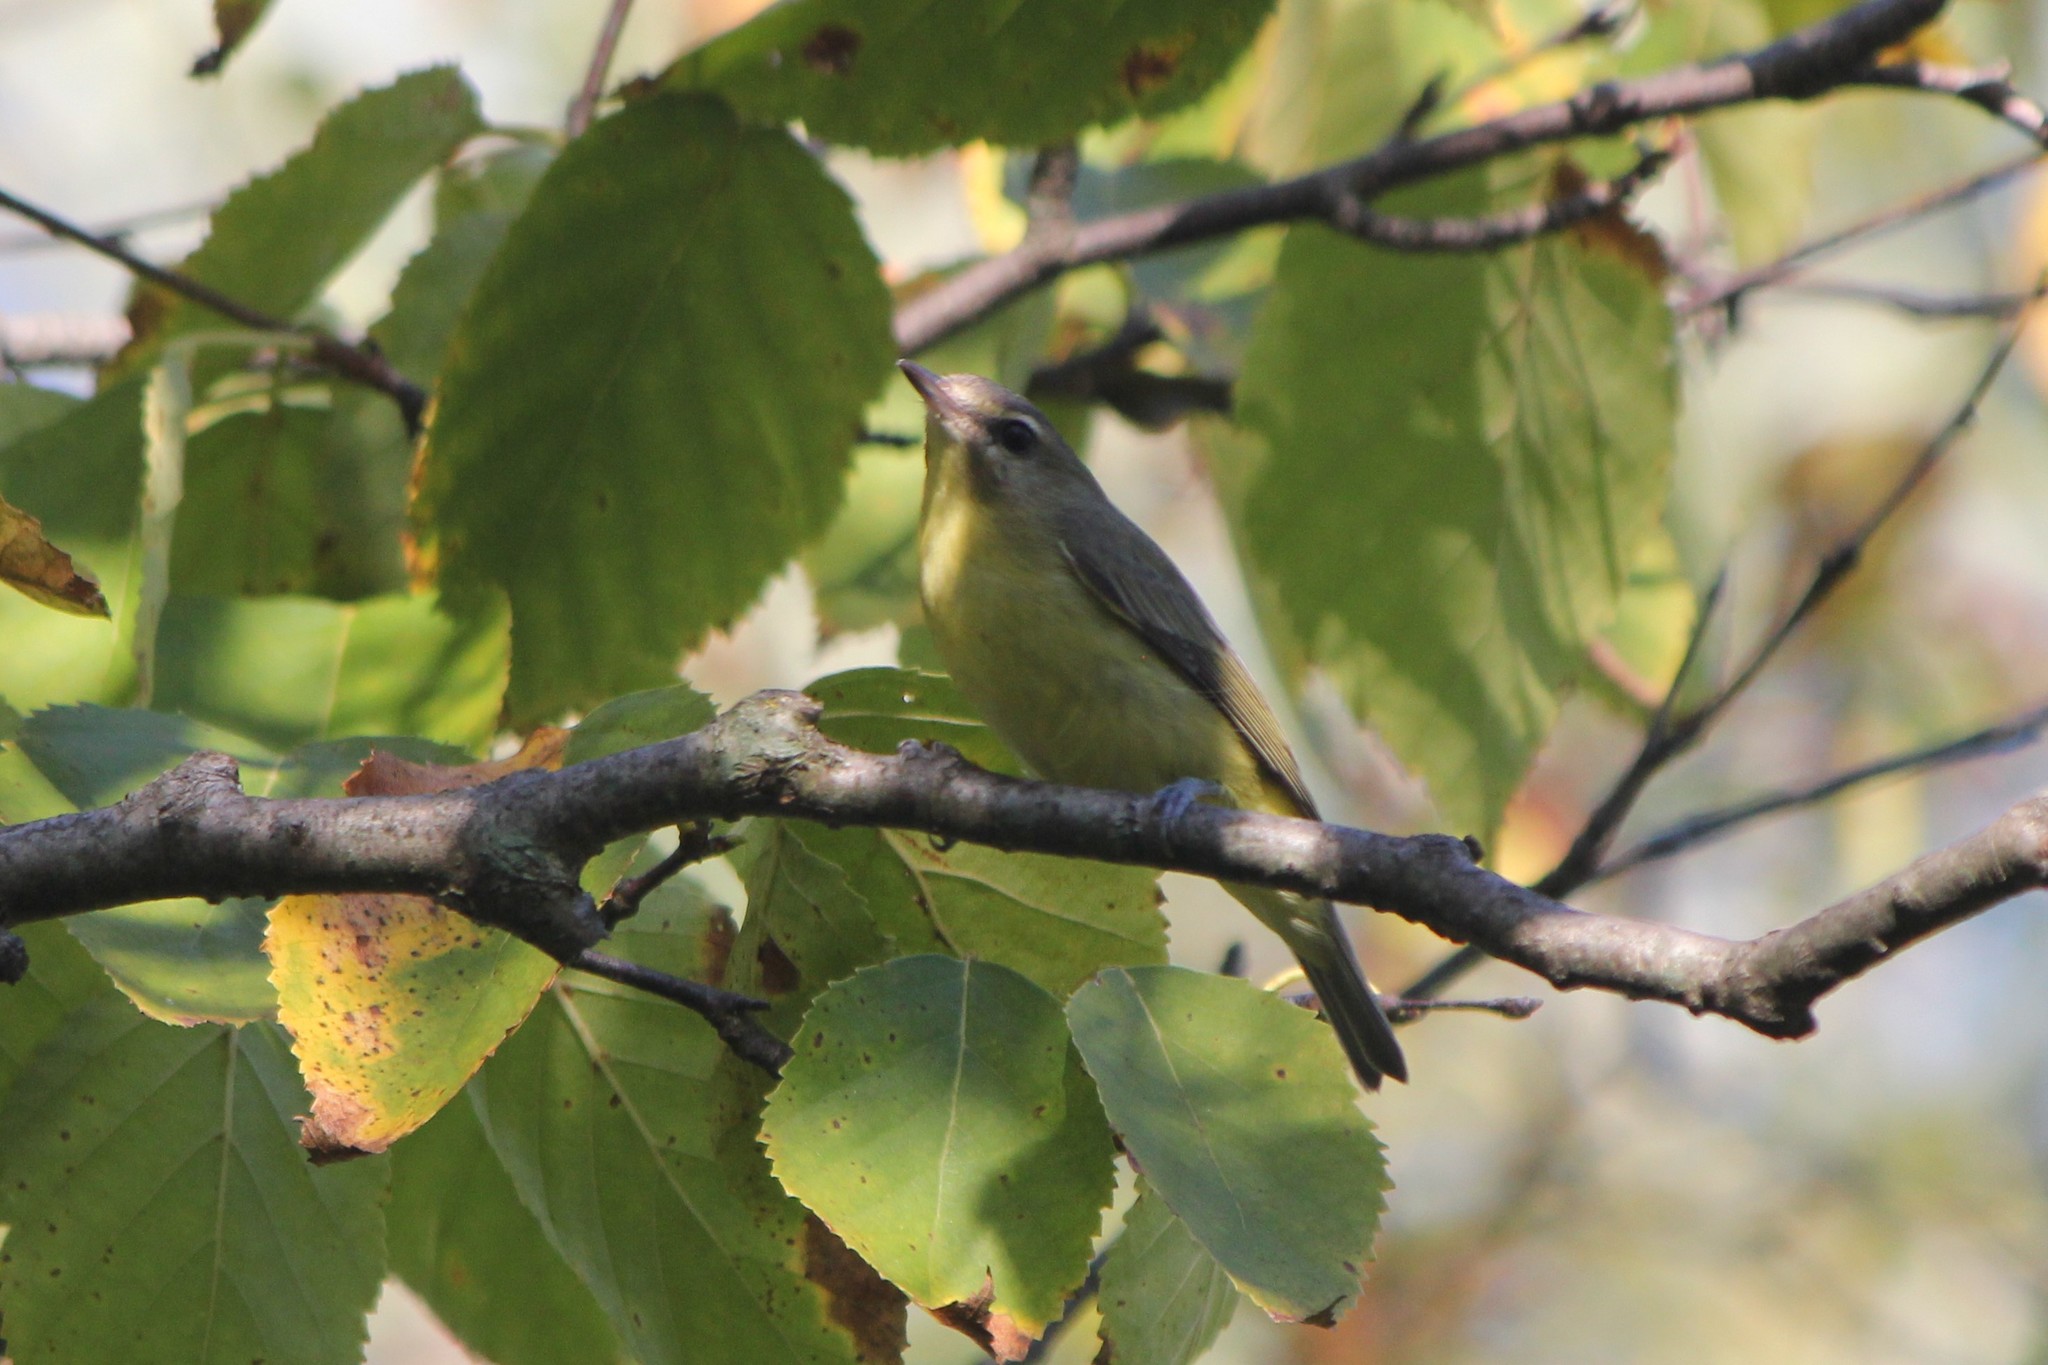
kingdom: Animalia
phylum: Chordata
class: Aves
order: Passeriformes
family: Vireonidae
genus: Vireo
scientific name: Vireo philadelphicus
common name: Philadelphia vireo
